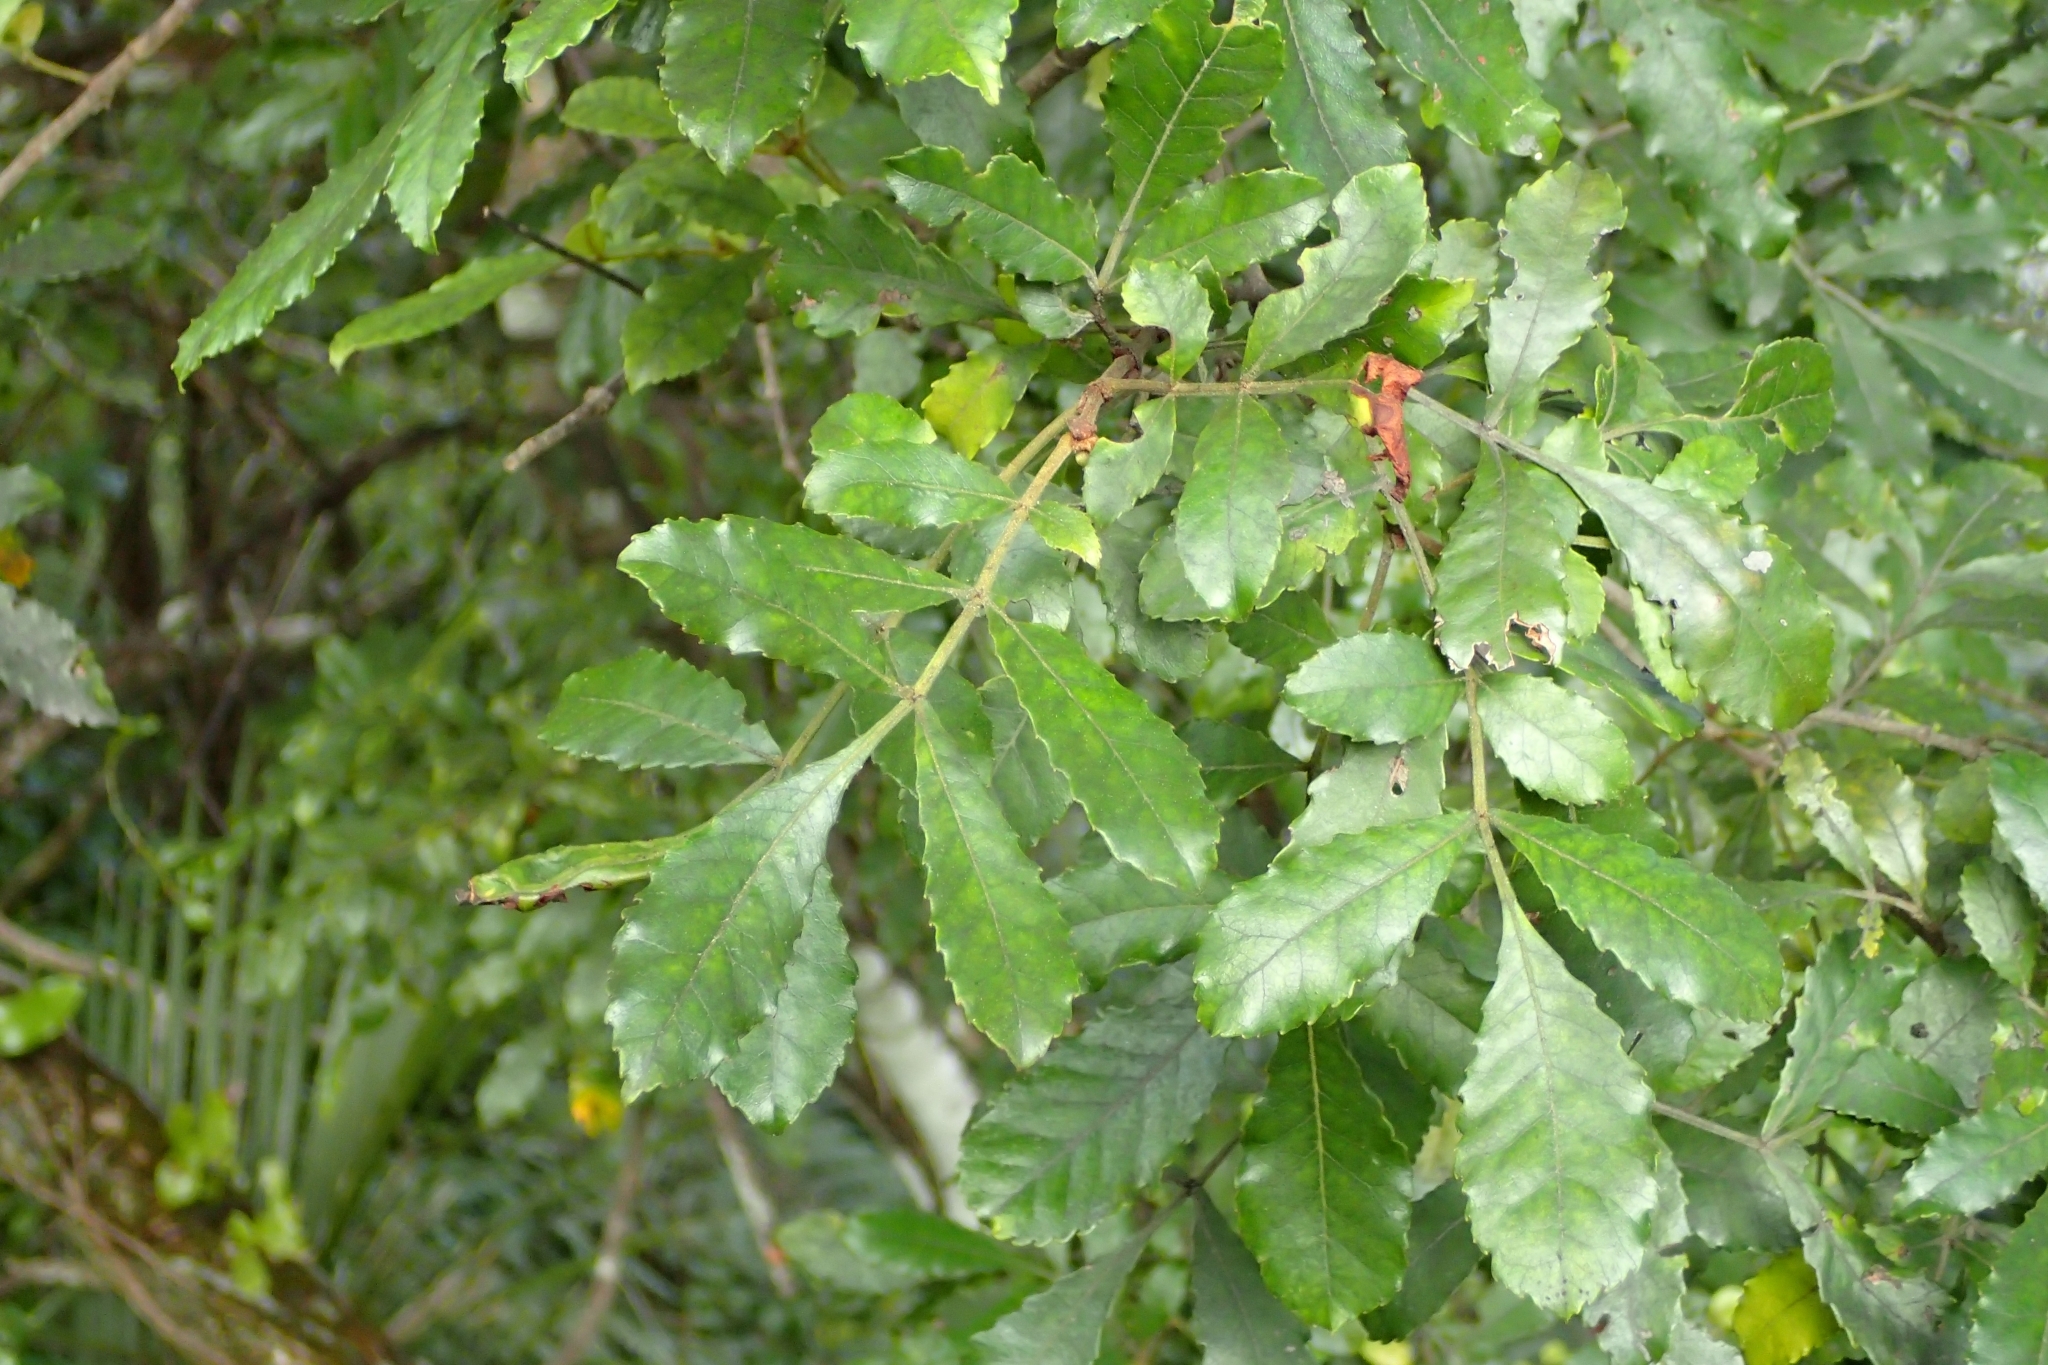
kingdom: Plantae
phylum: Tracheophyta
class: Magnoliopsida
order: Oxalidales
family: Cunoniaceae
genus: Pterophylla
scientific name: Pterophylla sylvicola
